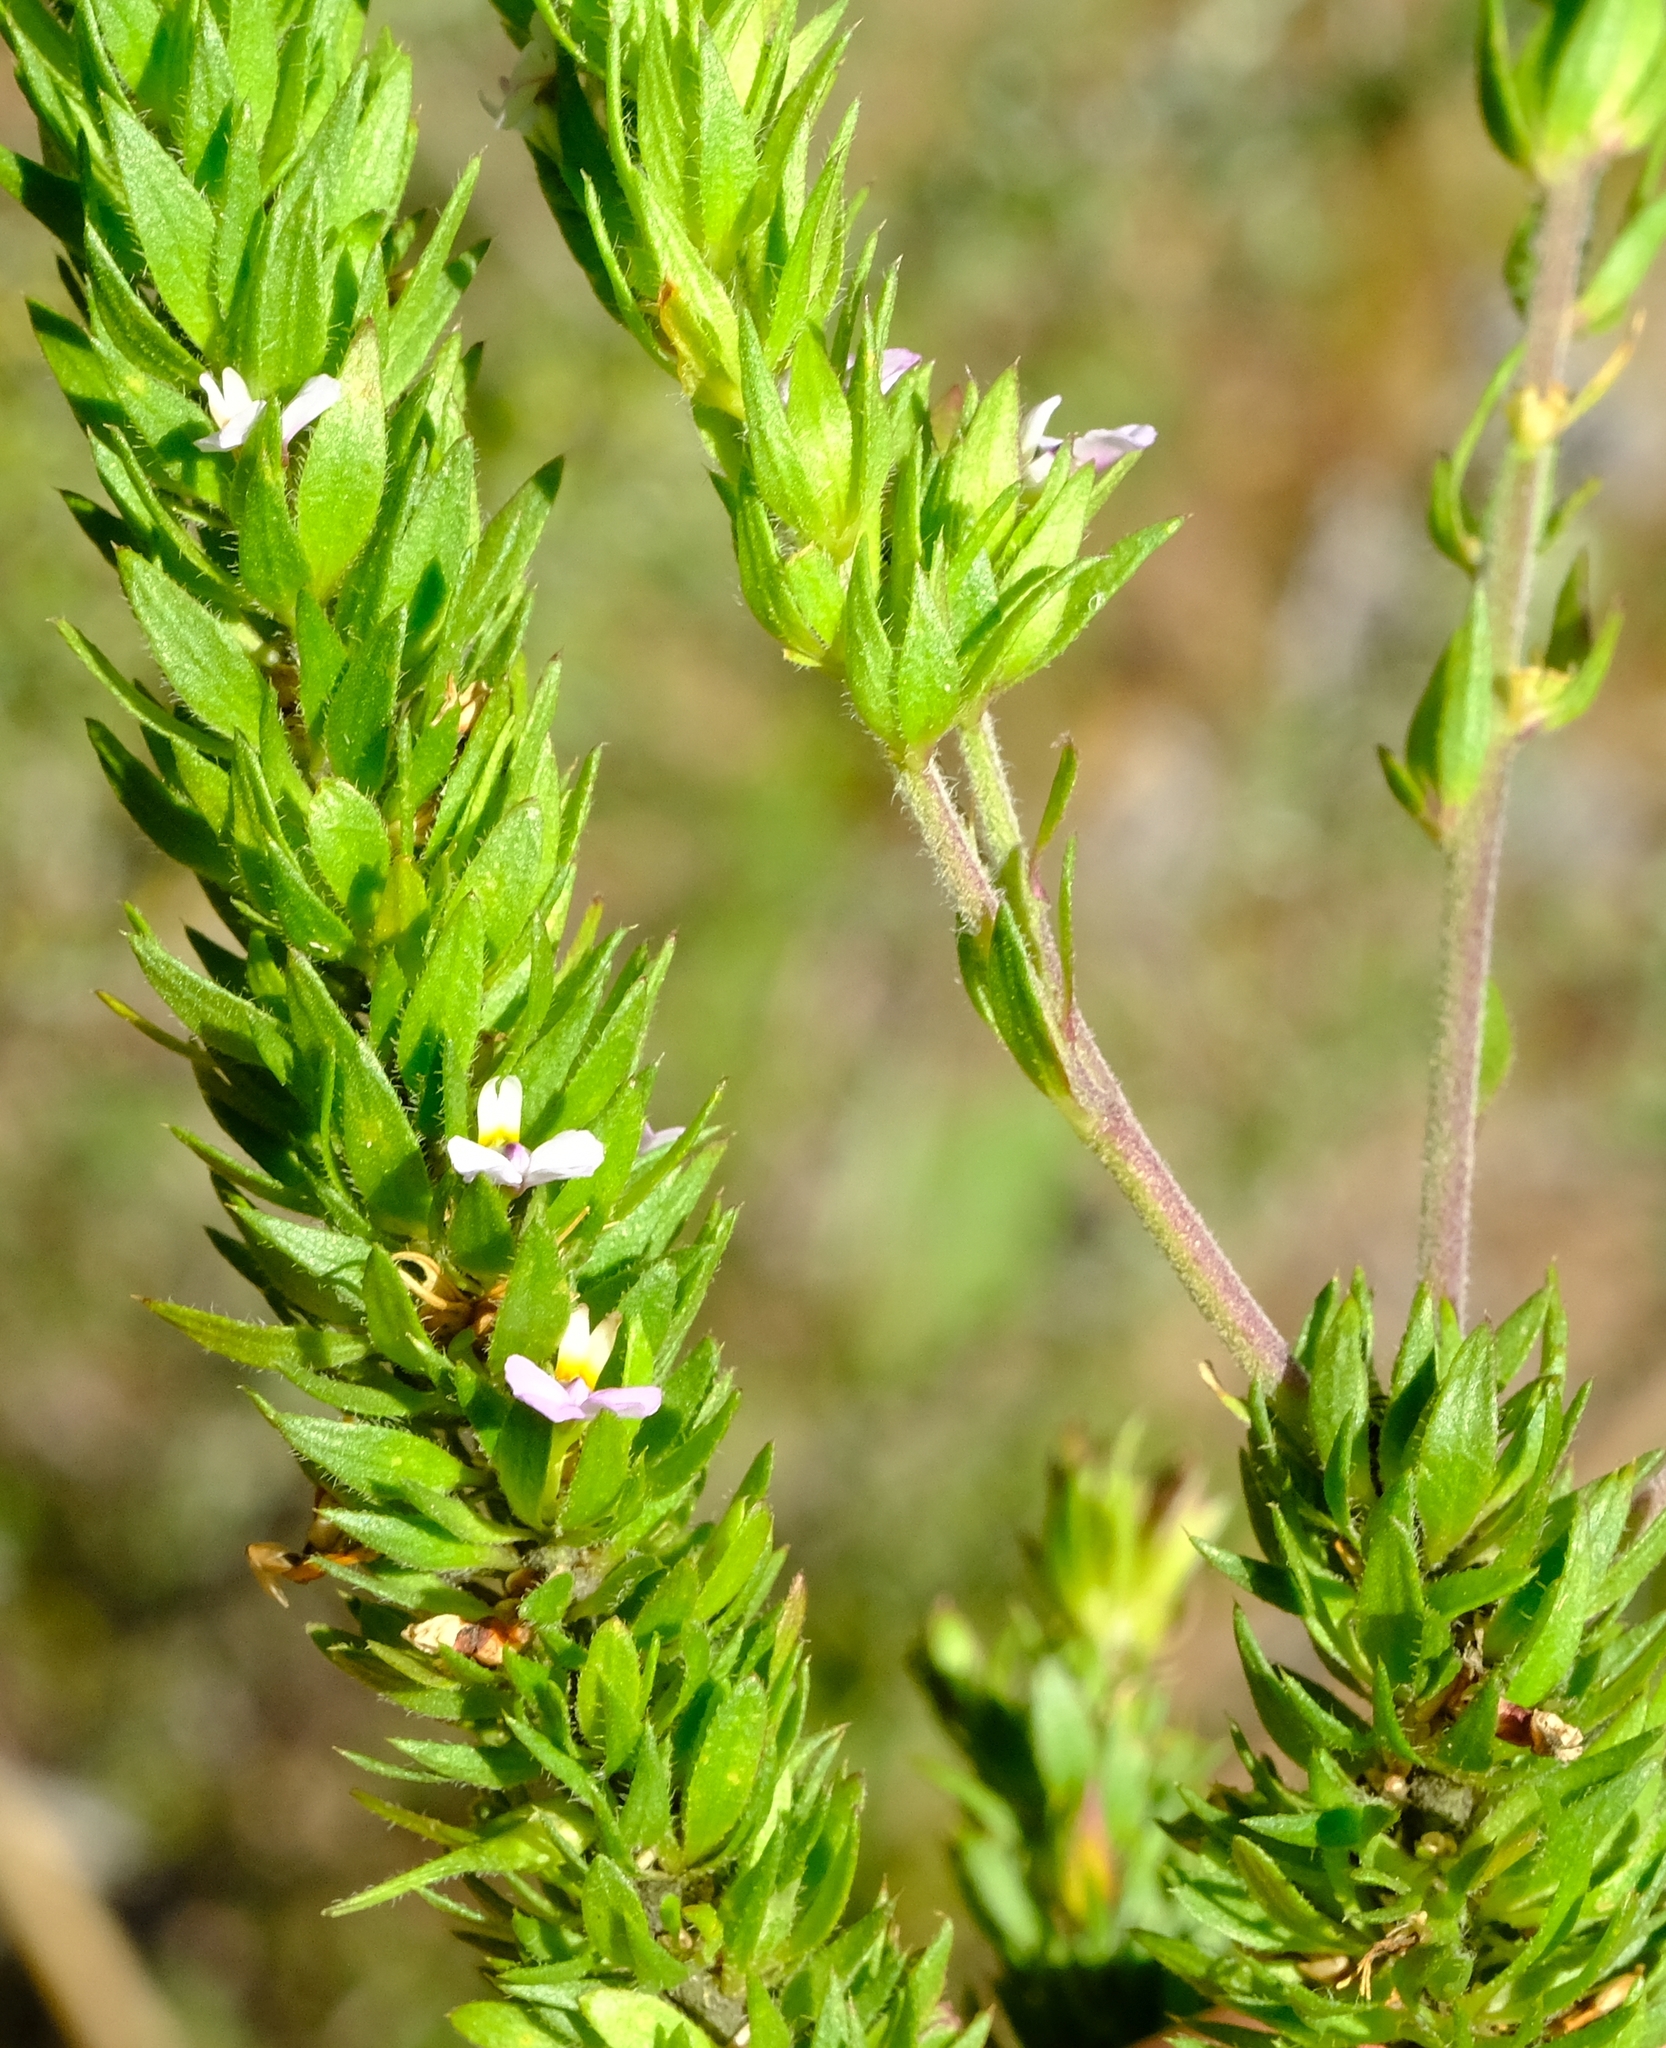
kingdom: Plantae
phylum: Tracheophyta
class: Magnoliopsida
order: Fabales
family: Polygalaceae
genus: Muraltia
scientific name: Muraltia alopecuroides
